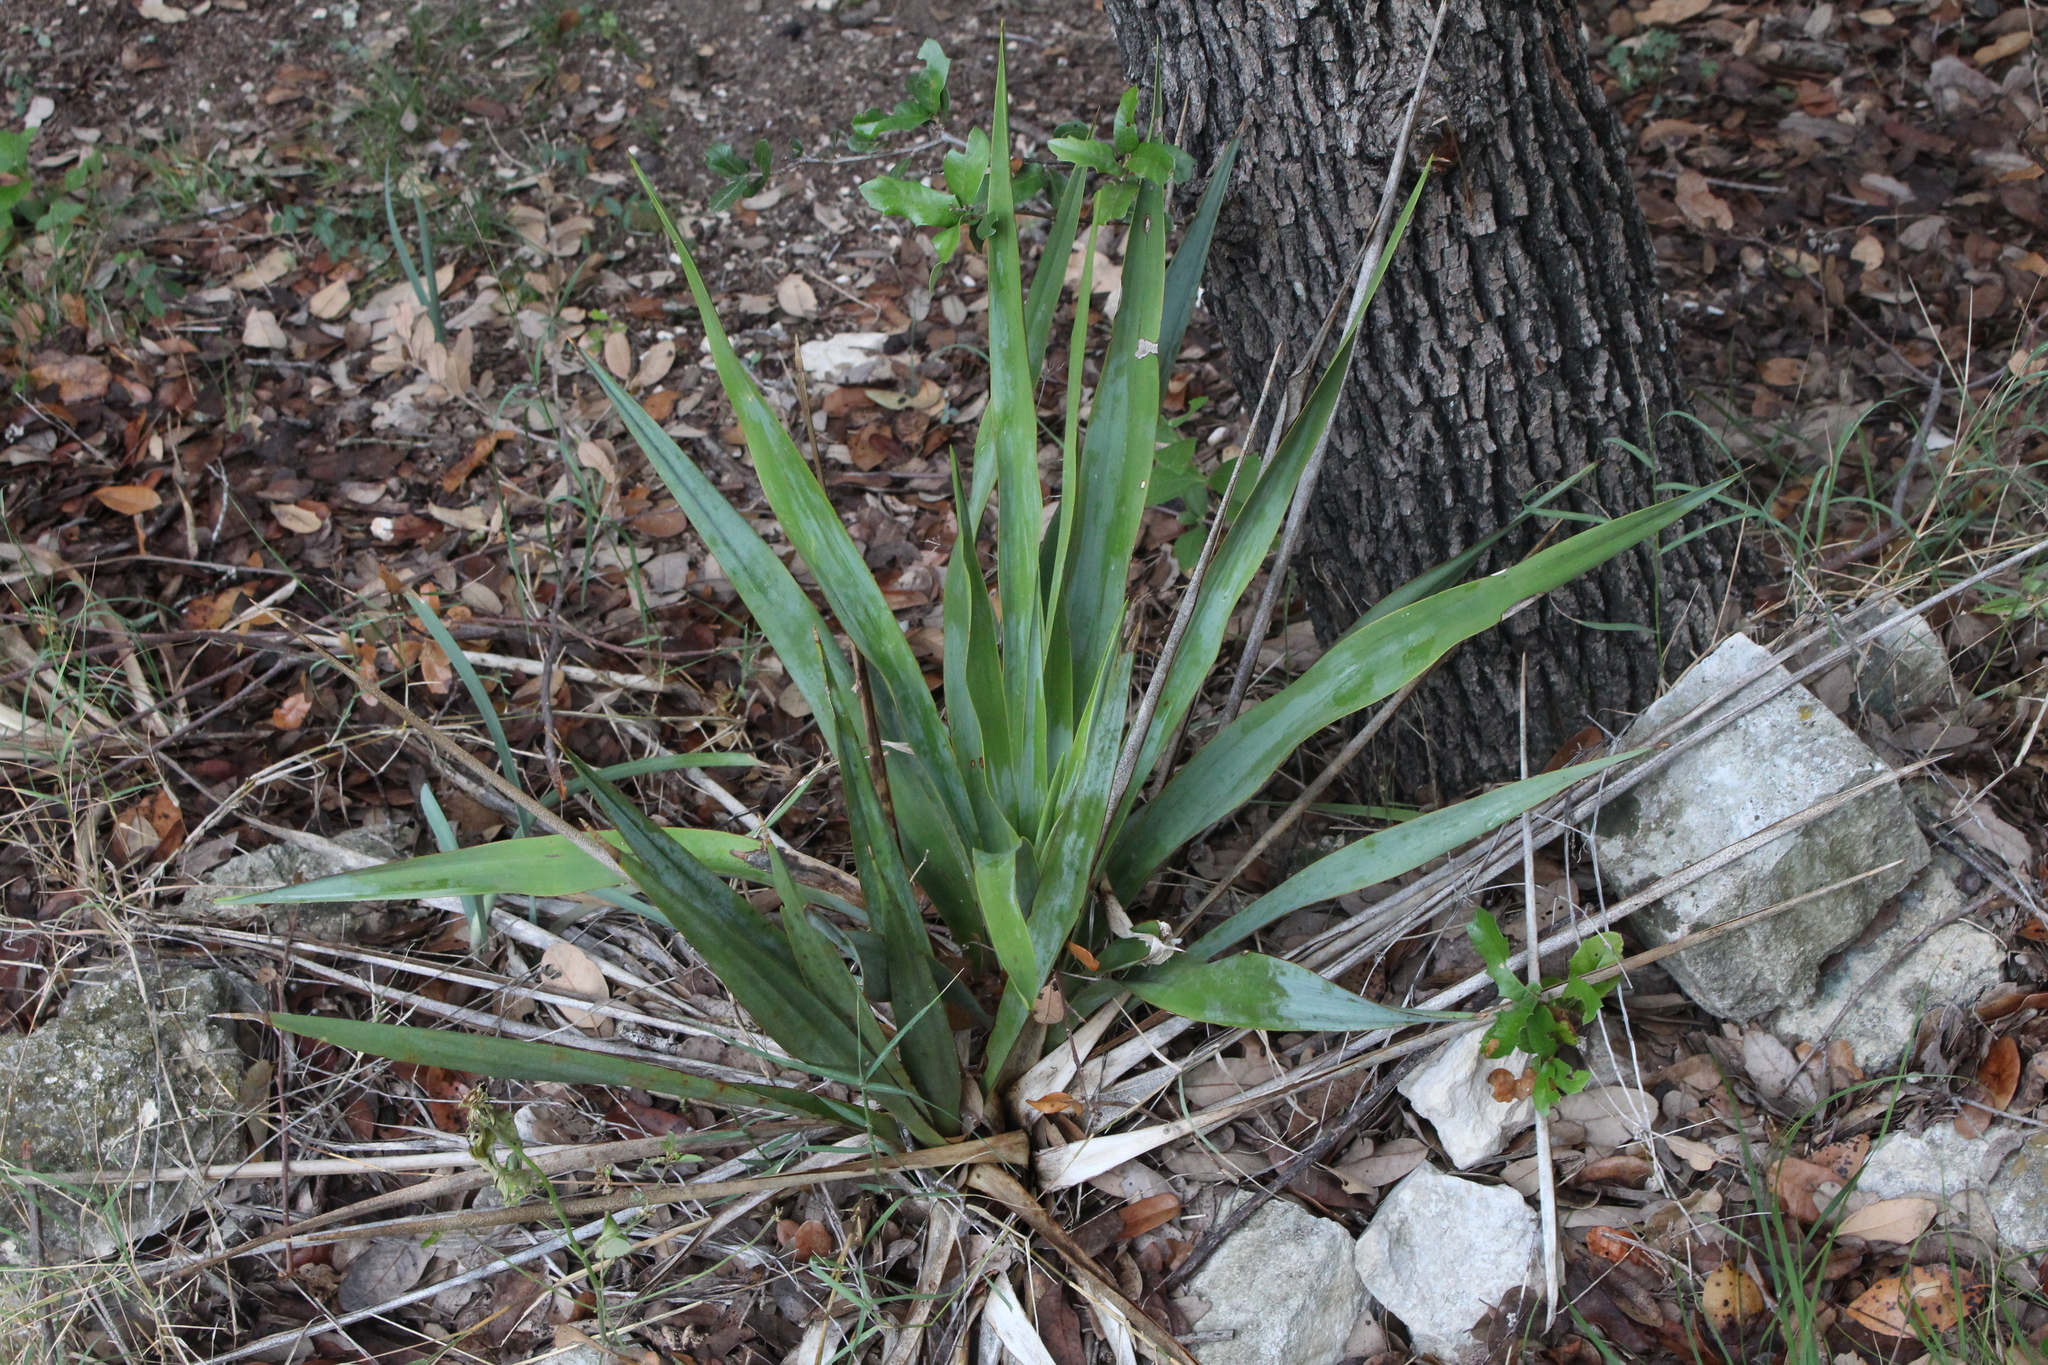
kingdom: Plantae
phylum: Tracheophyta
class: Liliopsida
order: Asparagales
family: Asparagaceae
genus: Yucca
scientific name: Yucca rupicola
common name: Twisted-leaf spanish-dagger
